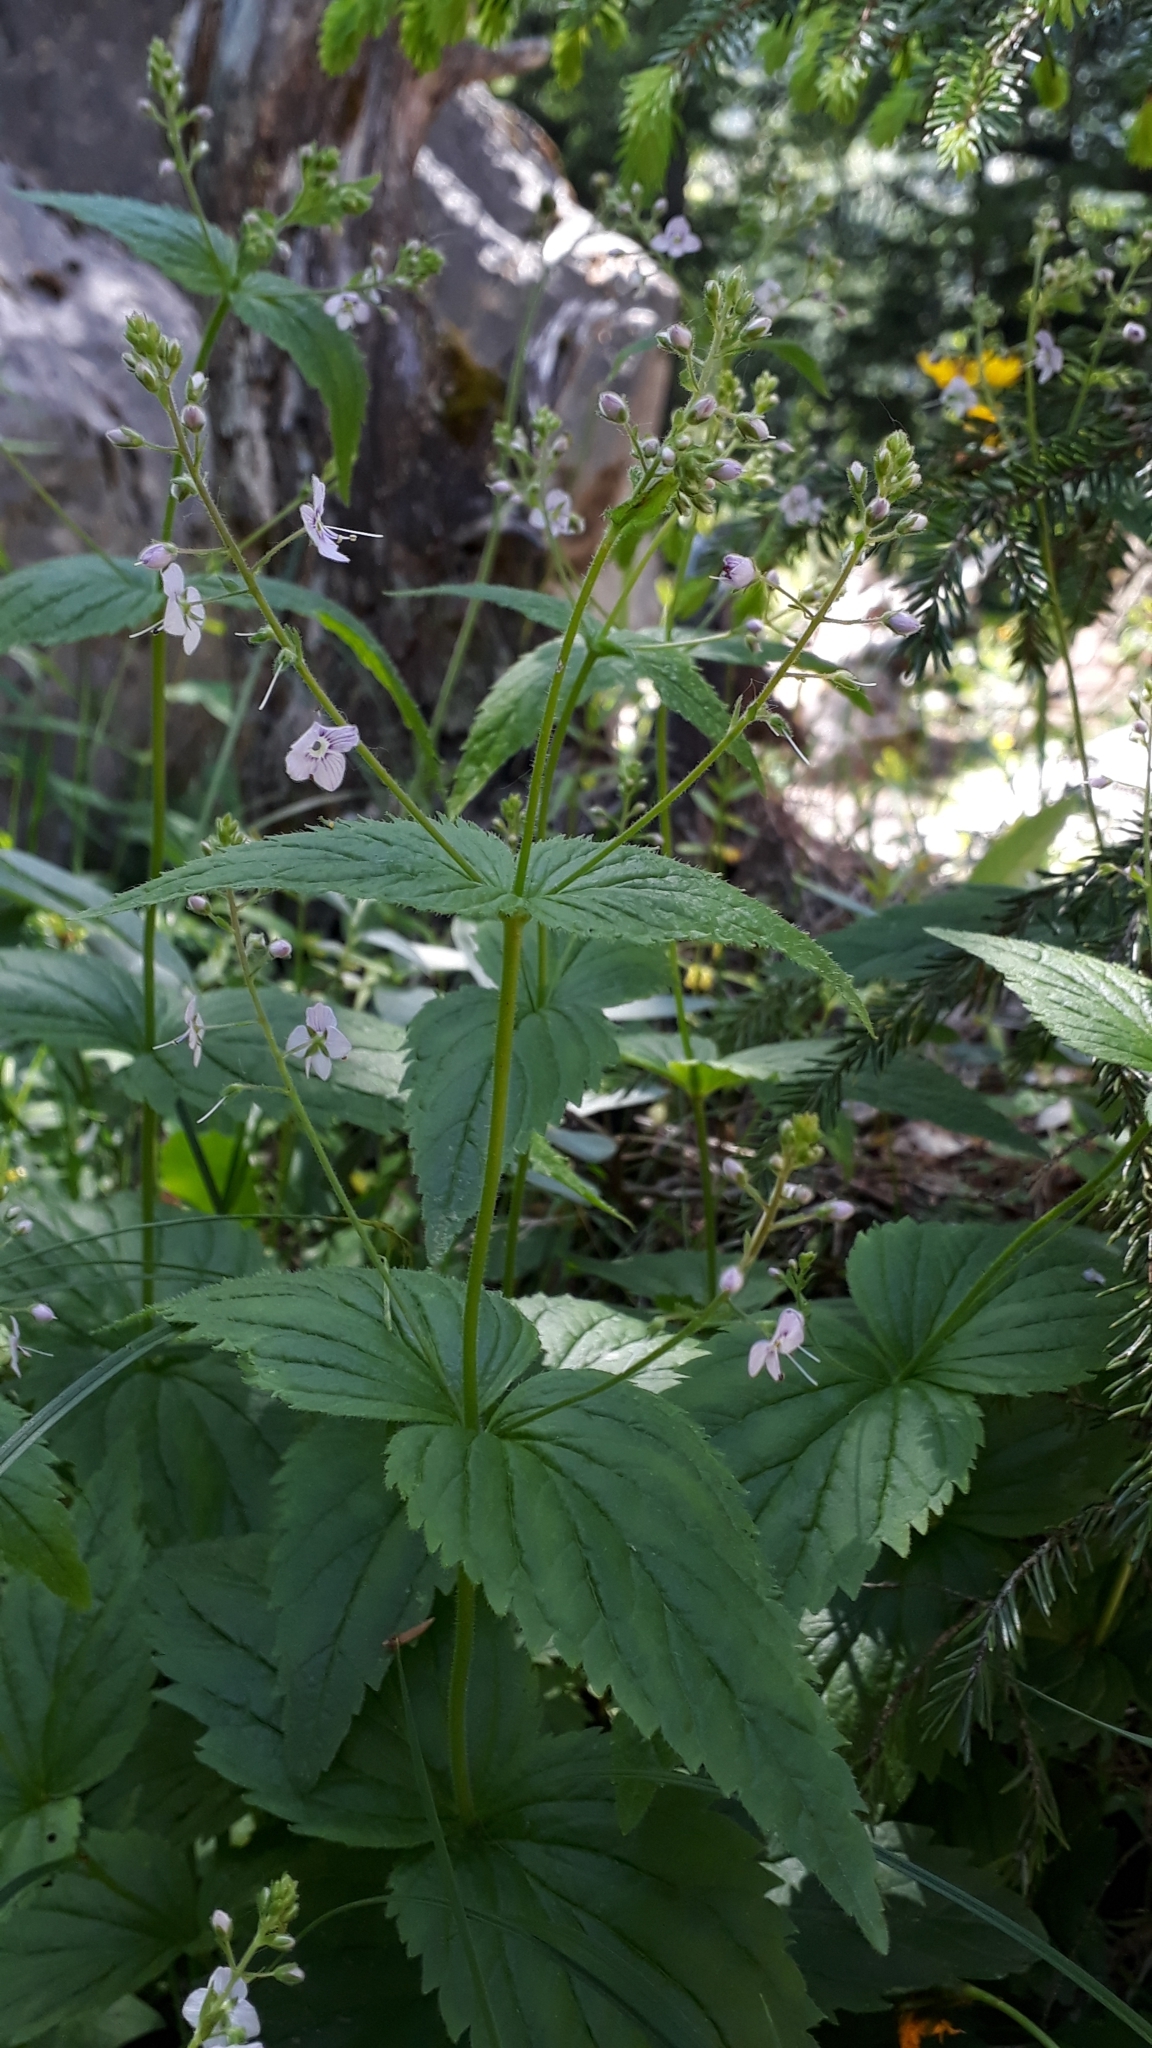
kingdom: Plantae
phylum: Tracheophyta
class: Magnoliopsida
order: Lamiales
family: Plantaginaceae
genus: Veronica
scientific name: Veronica urticifolia
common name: Nettle-leaf speedwell
